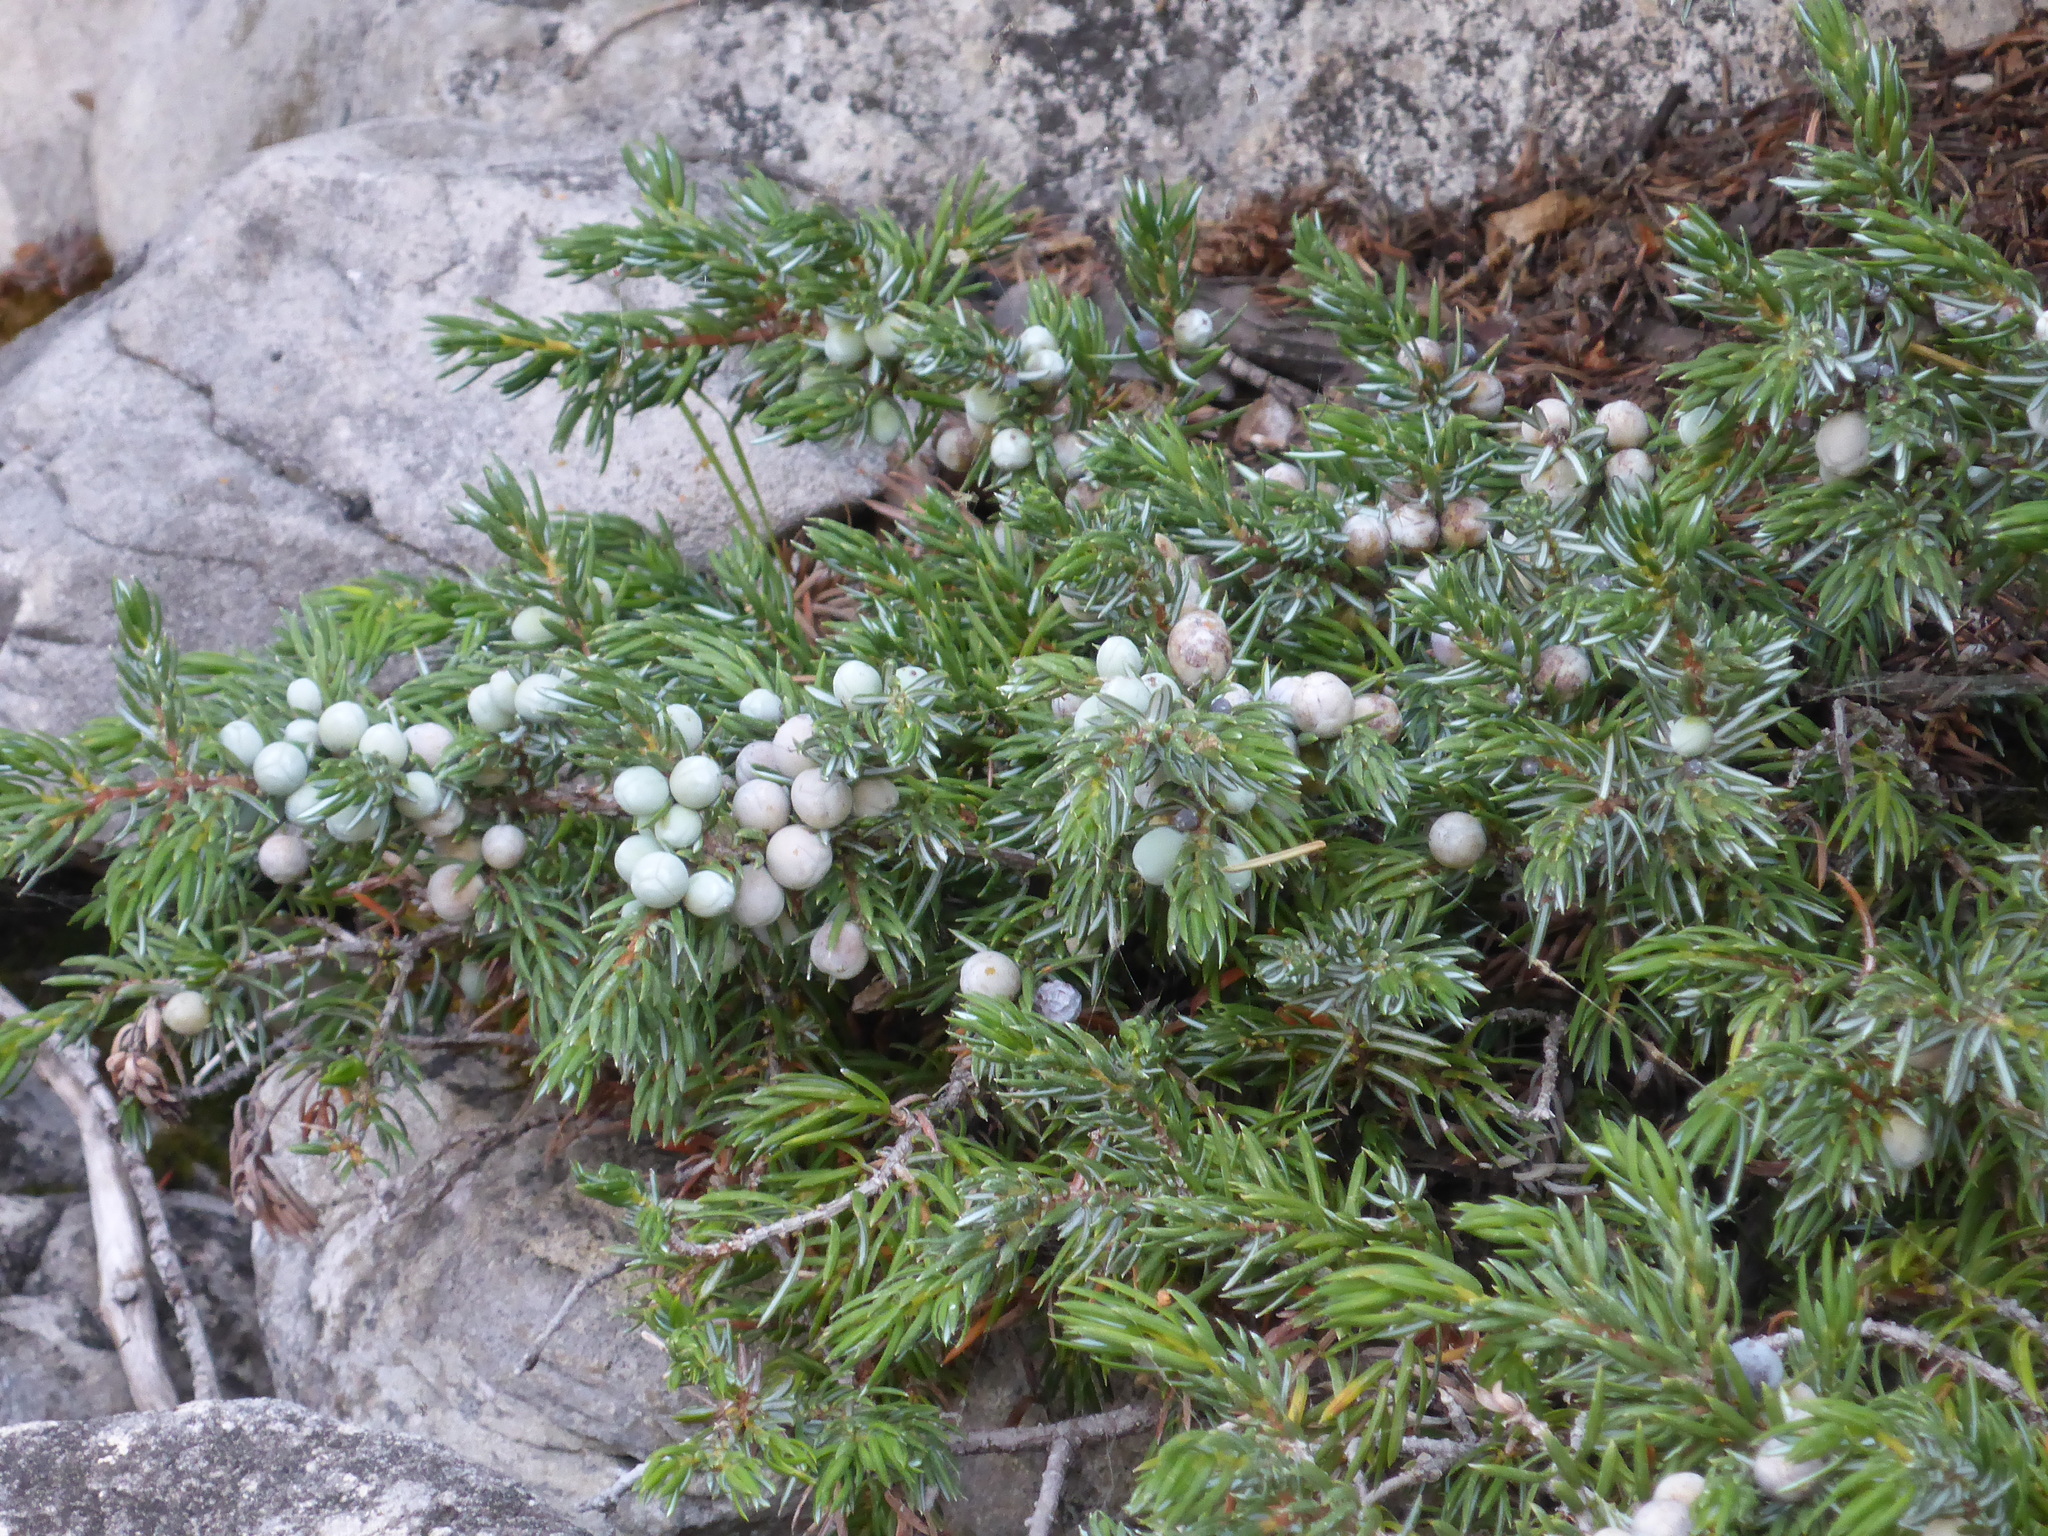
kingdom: Plantae
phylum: Tracheophyta
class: Pinopsida
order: Pinales
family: Cupressaceae
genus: Juniperus
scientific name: Juniperus communis
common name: Common juniper
